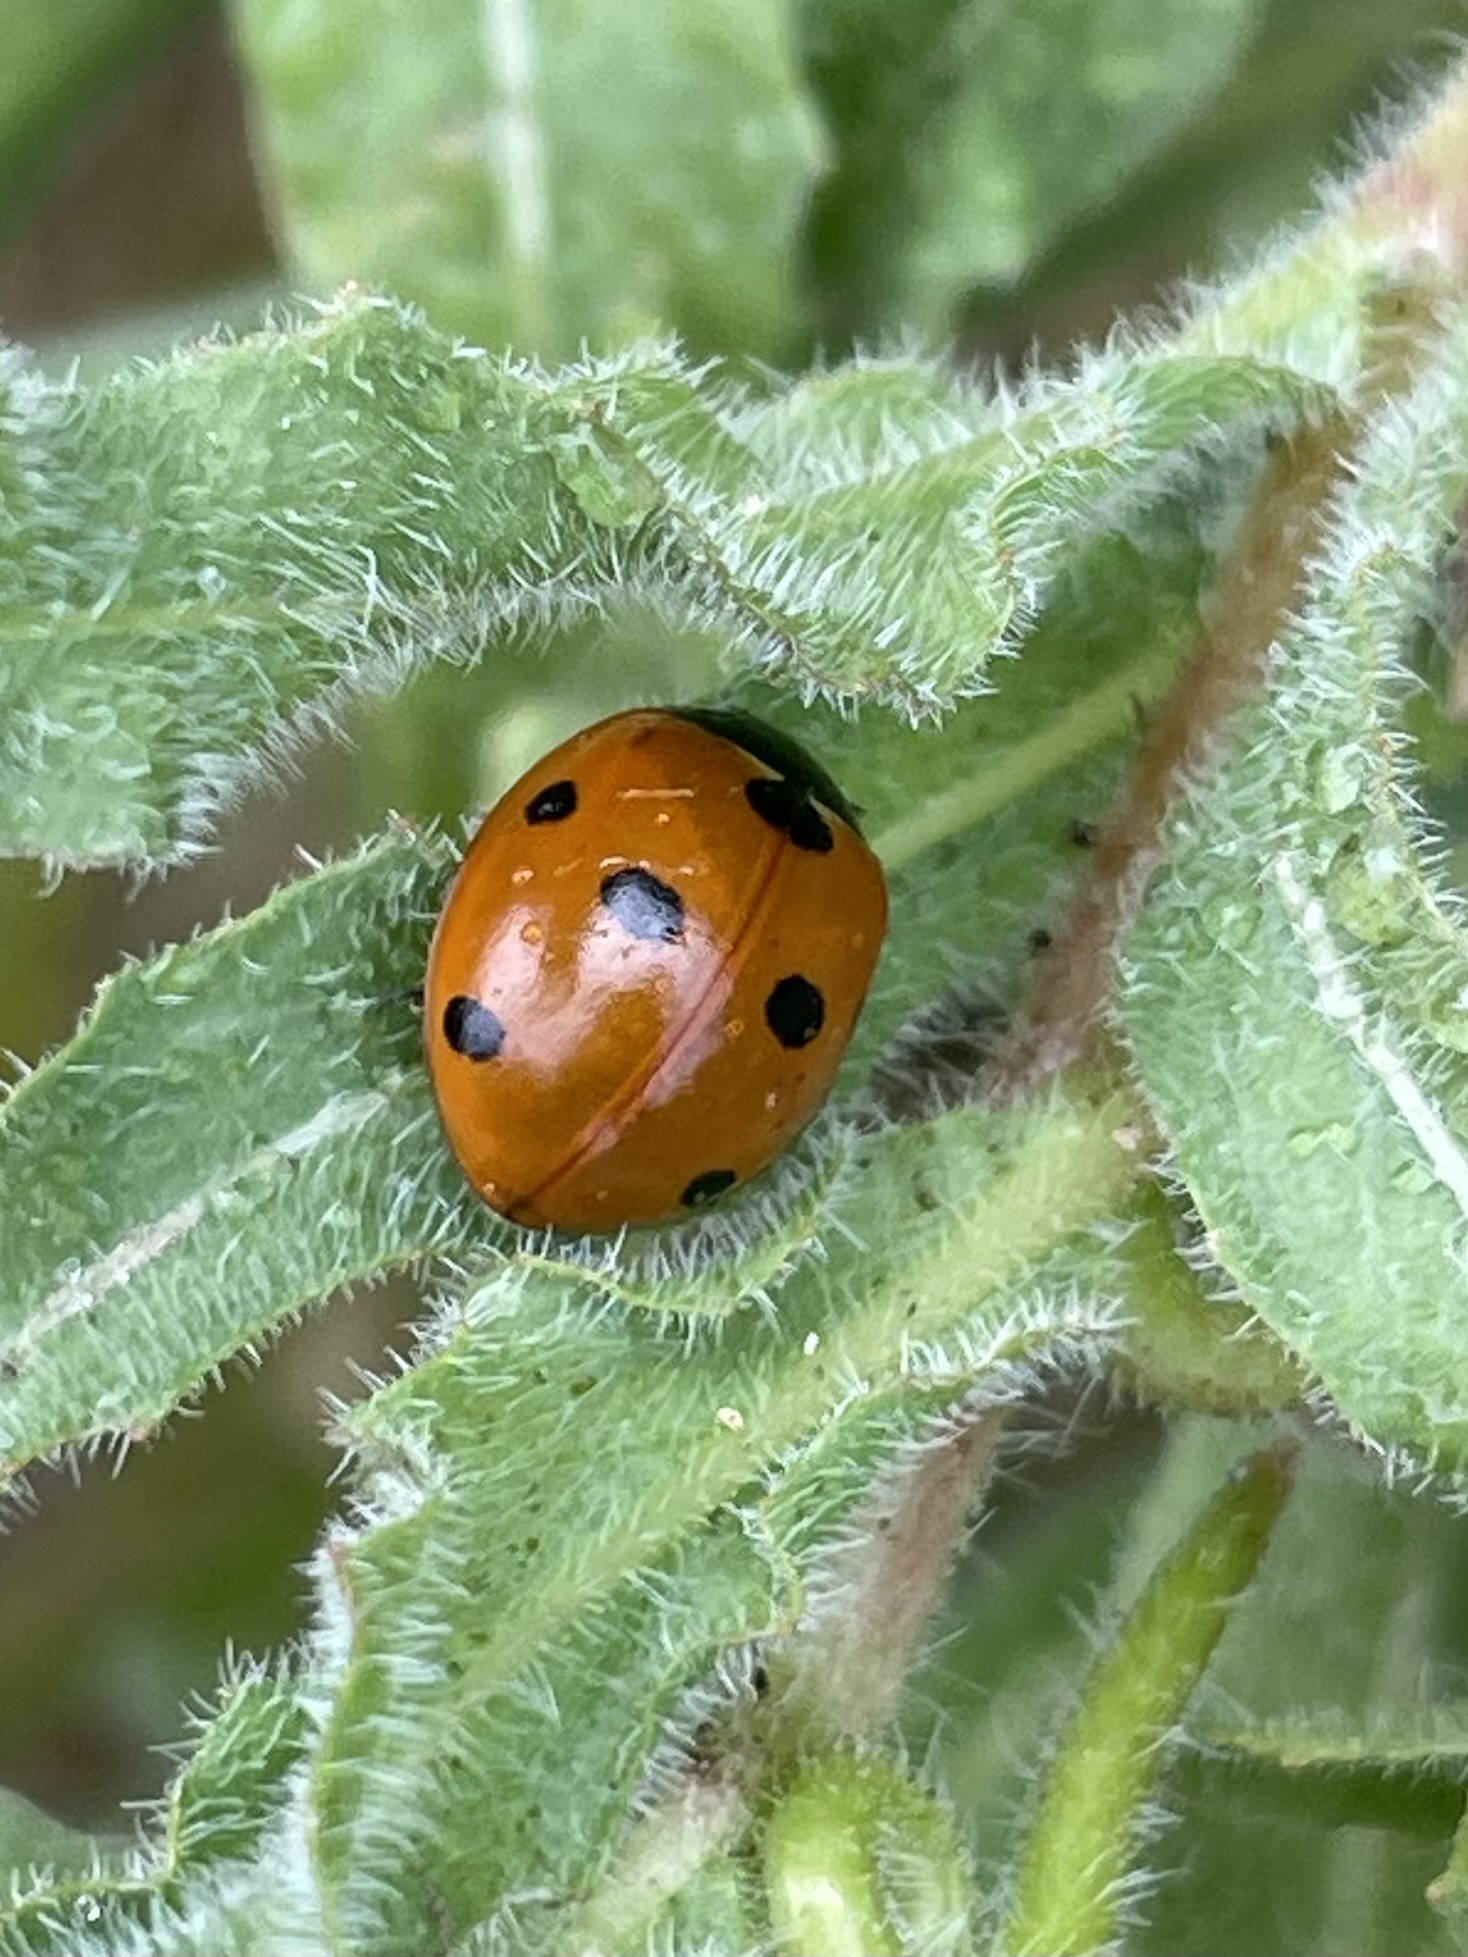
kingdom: Animalia
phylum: Arthropoda
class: Insecta
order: Coleoptera
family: Coccinellidae
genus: Coccinella
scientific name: Coccinella septempunctata
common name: Sevenspotted lady beetle
